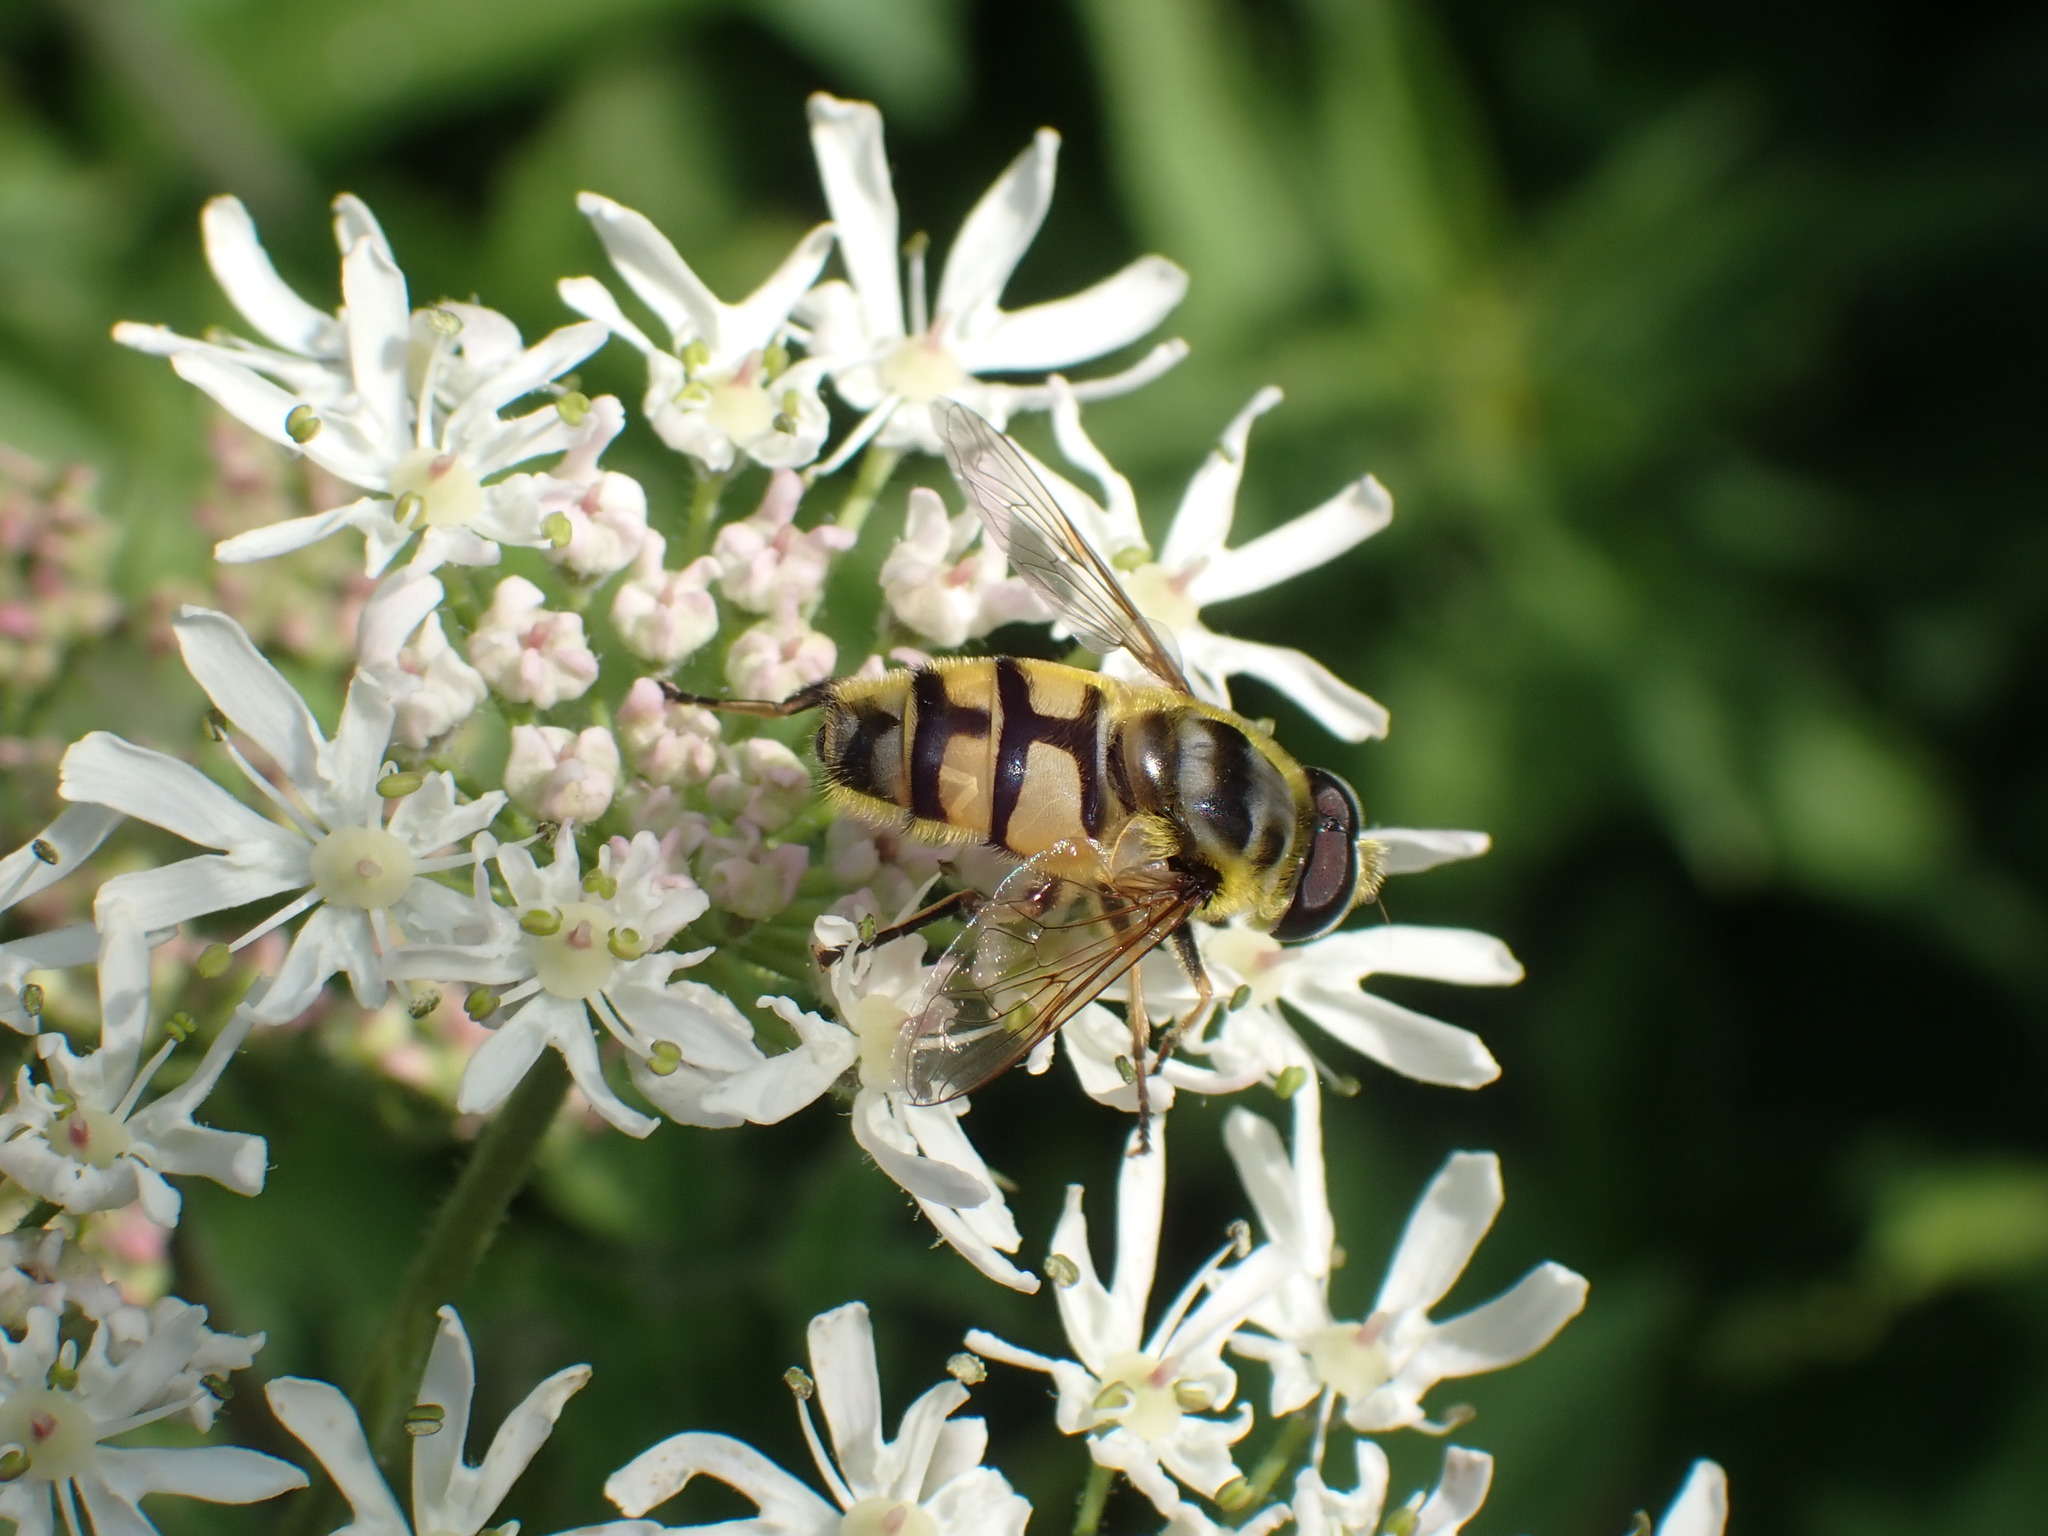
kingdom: Animalia
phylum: Arthropoda
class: Insecta
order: Diptera
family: Syrphidae
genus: Myathropa
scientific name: Myathropa florea
